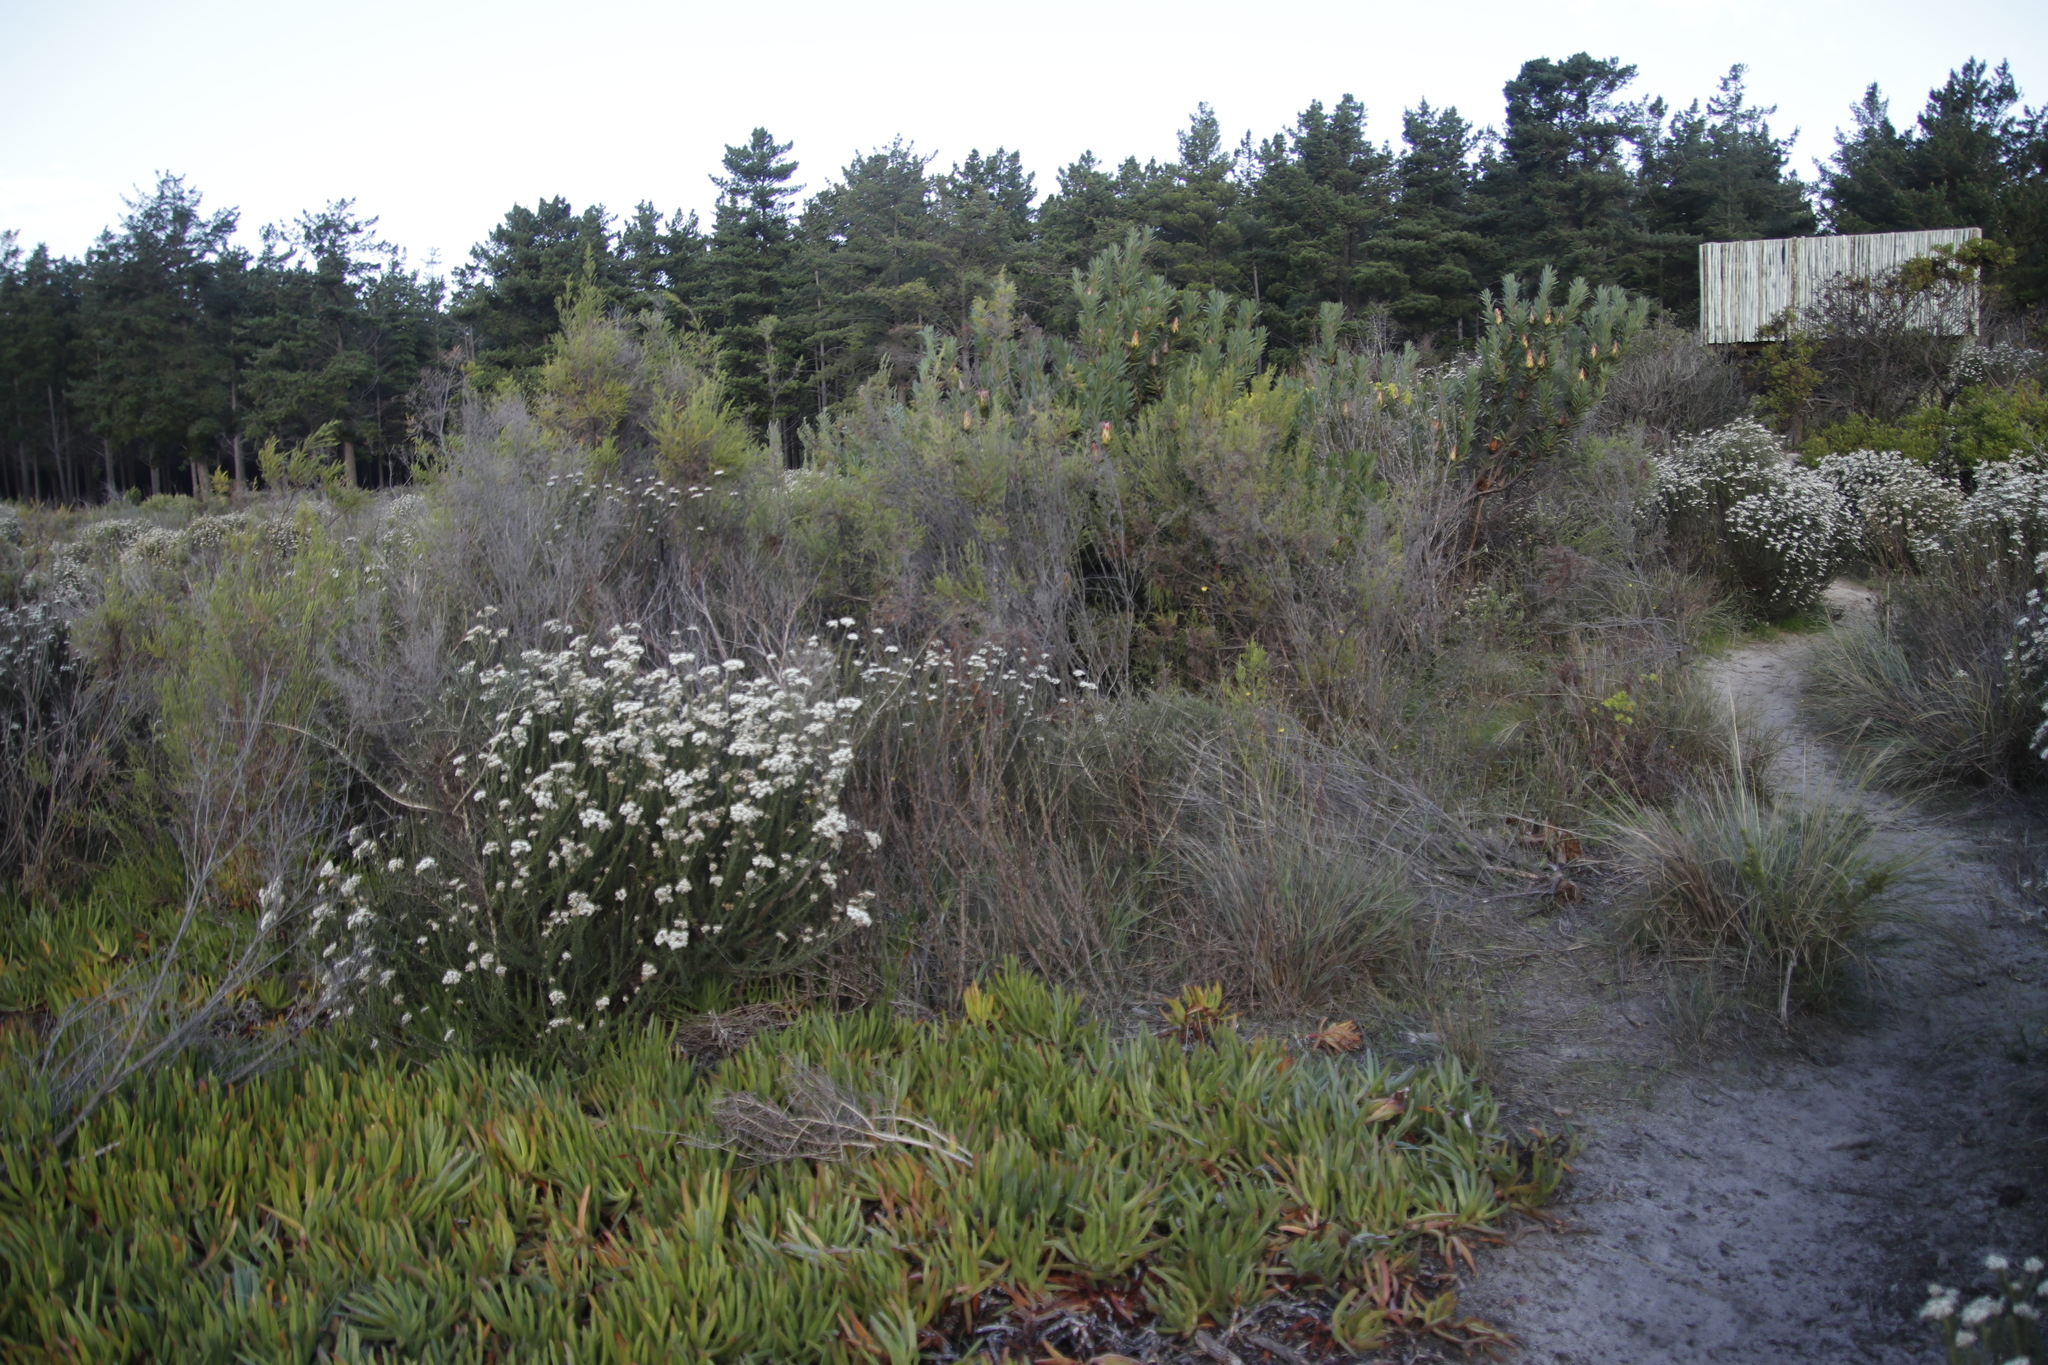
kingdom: Plantae
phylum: Tracheophyta
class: Magnoliopsida
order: Caryophyllales
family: Aizoaceae
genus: Carpobrotus
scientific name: Carpobrotus edulis
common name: Hottentot-fig
